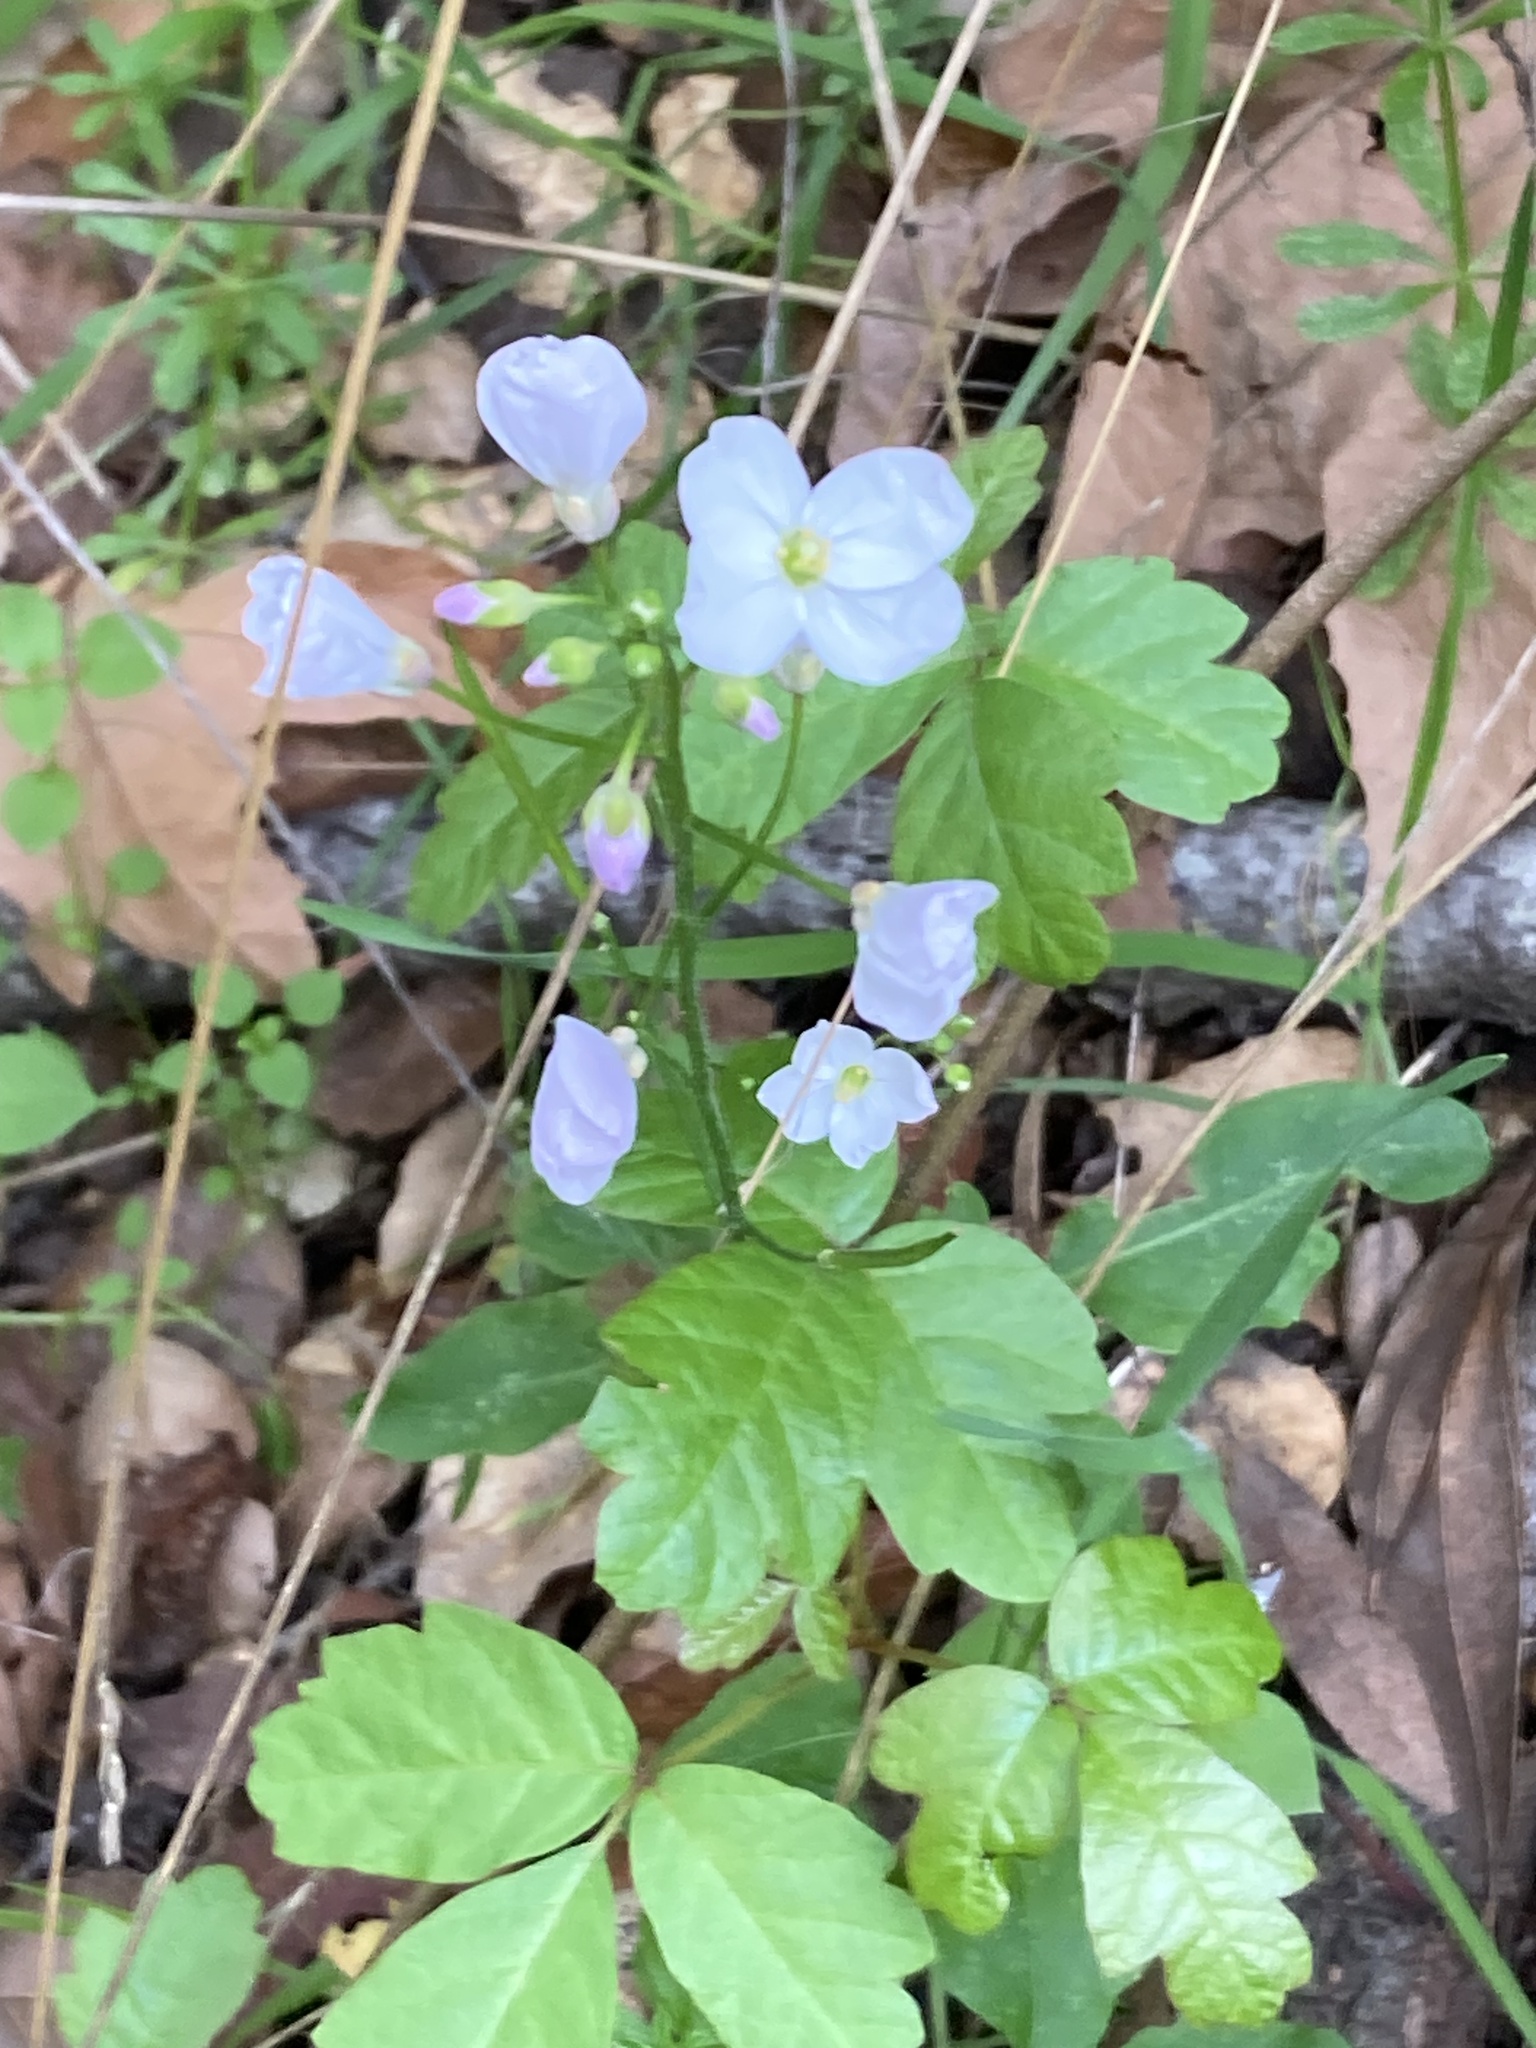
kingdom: Plantae
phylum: Tracheophyta
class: Magnoliopsida
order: Brassicales
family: Brassicaceae
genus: Cardamine
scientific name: Cardamine californica
